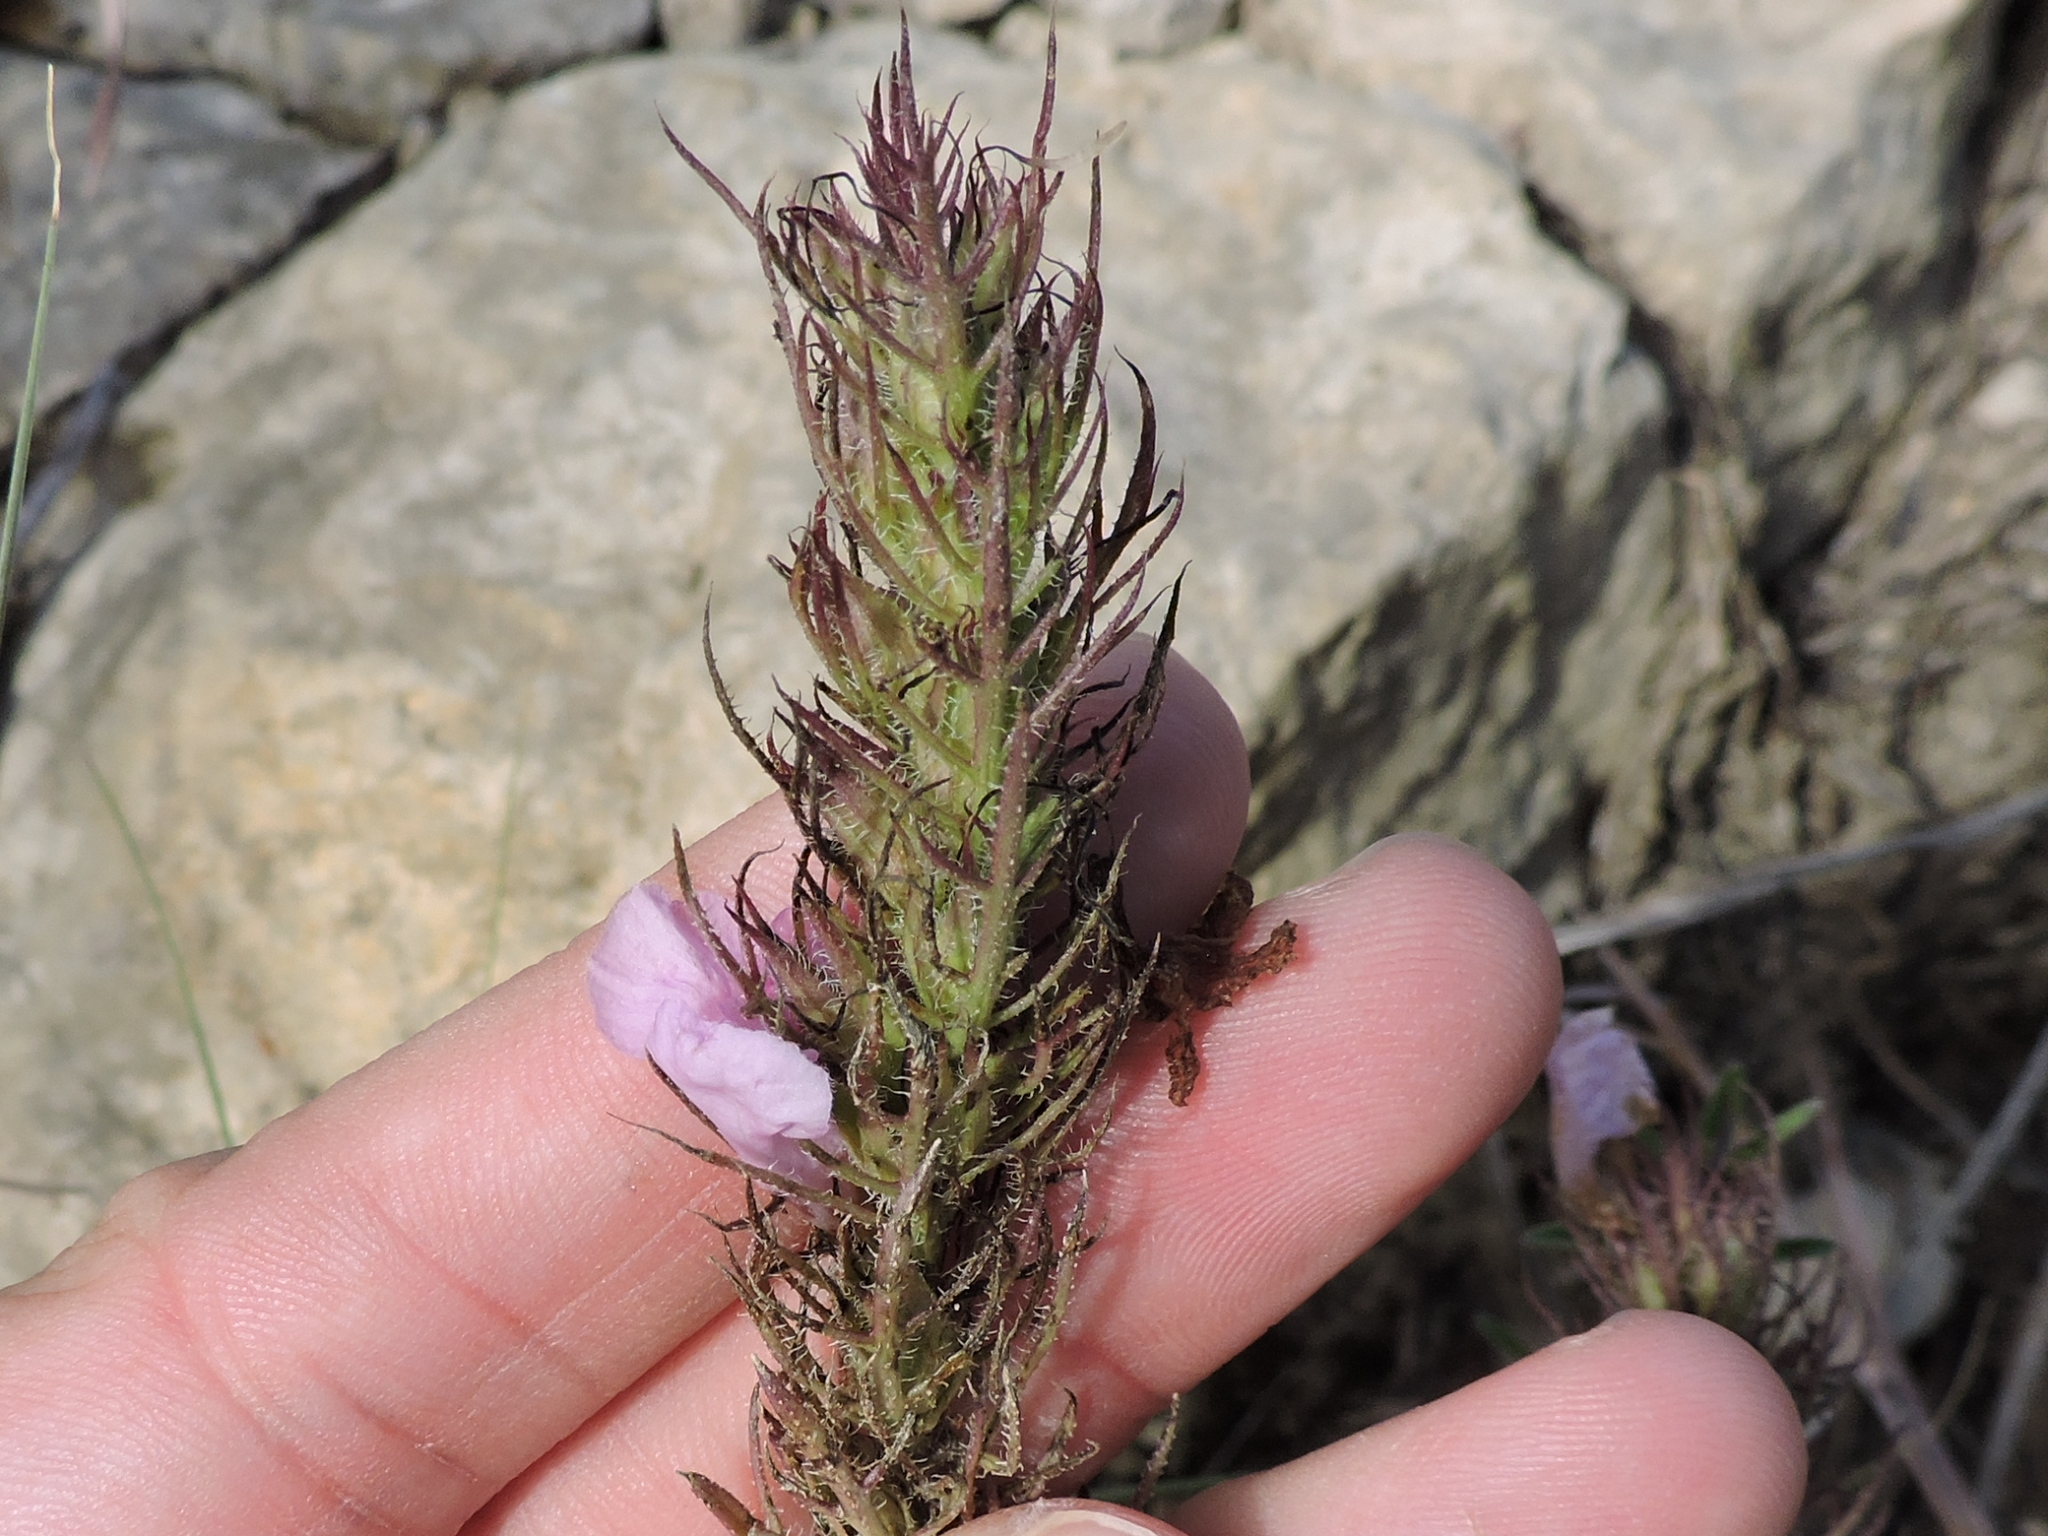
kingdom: Plantae
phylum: Tracheophyta
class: Magnoliopsida
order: Lamiales
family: Orobanchaceae
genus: Agalinis
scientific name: Agalinis densiflora
